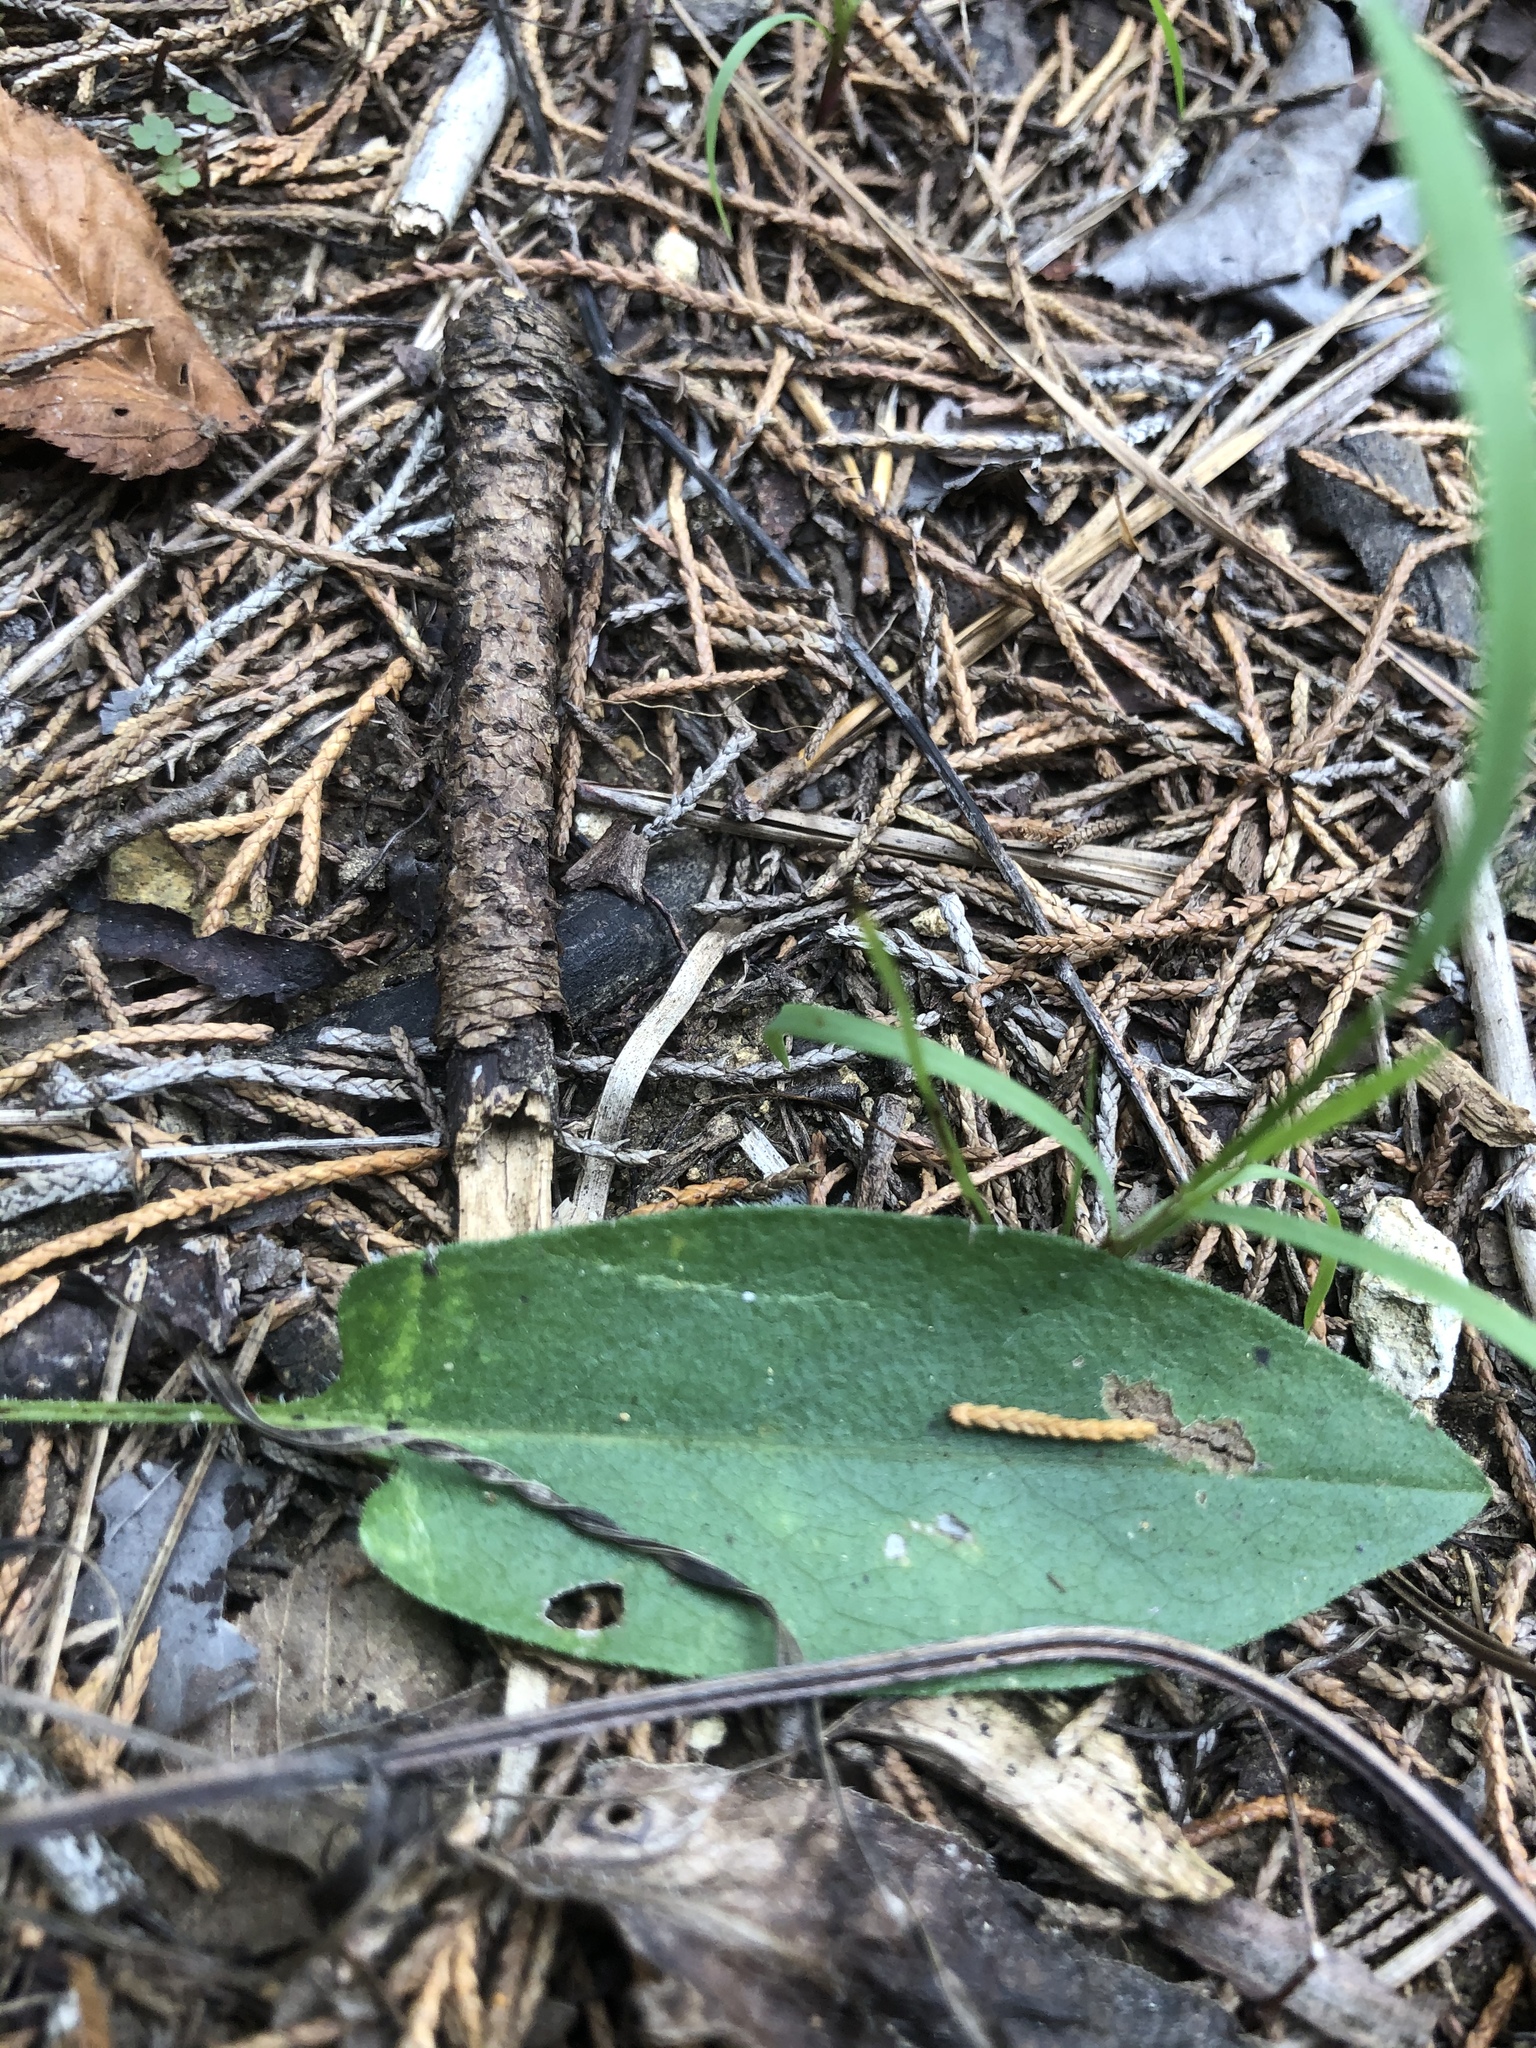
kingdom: Plantae
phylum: Tracheophyta
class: Magnoliopsida
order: Asterales
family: Asteraceae
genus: Symphyotrichum
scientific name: Symphyotrichum oolentangiense
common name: Azure aster
